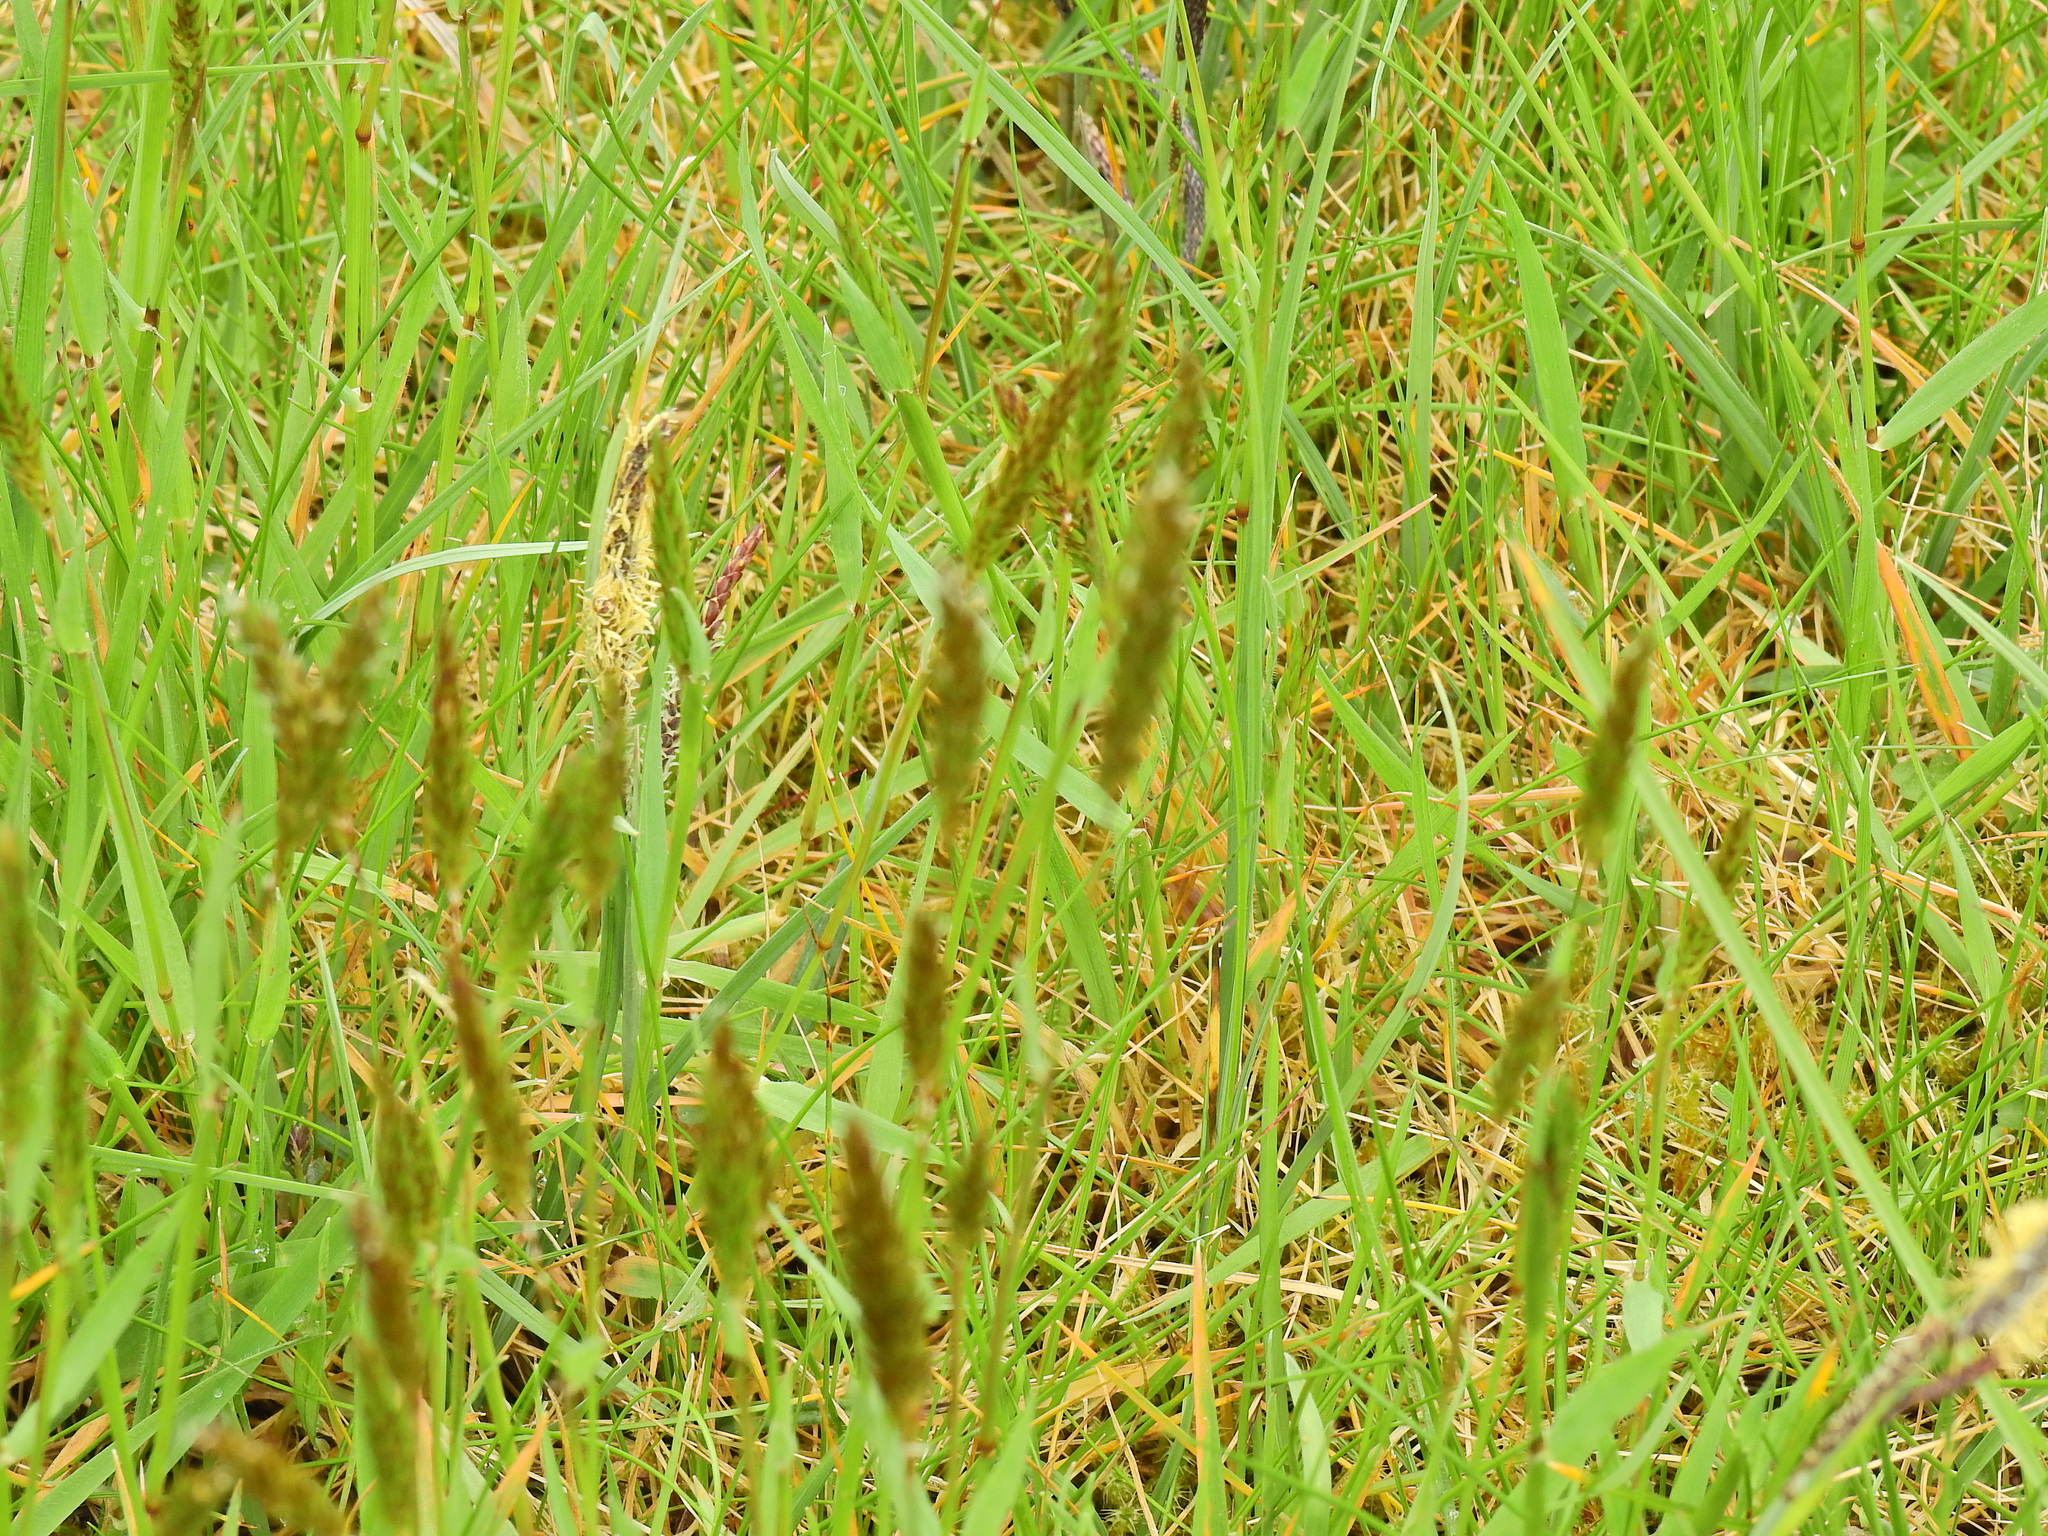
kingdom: Plantae
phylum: Tracheophyta
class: Liliopsida
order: Poales
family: Poaceae
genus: Anthoxanthum
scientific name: Anthoxanthum odoratum
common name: Sweet vernalgrass
